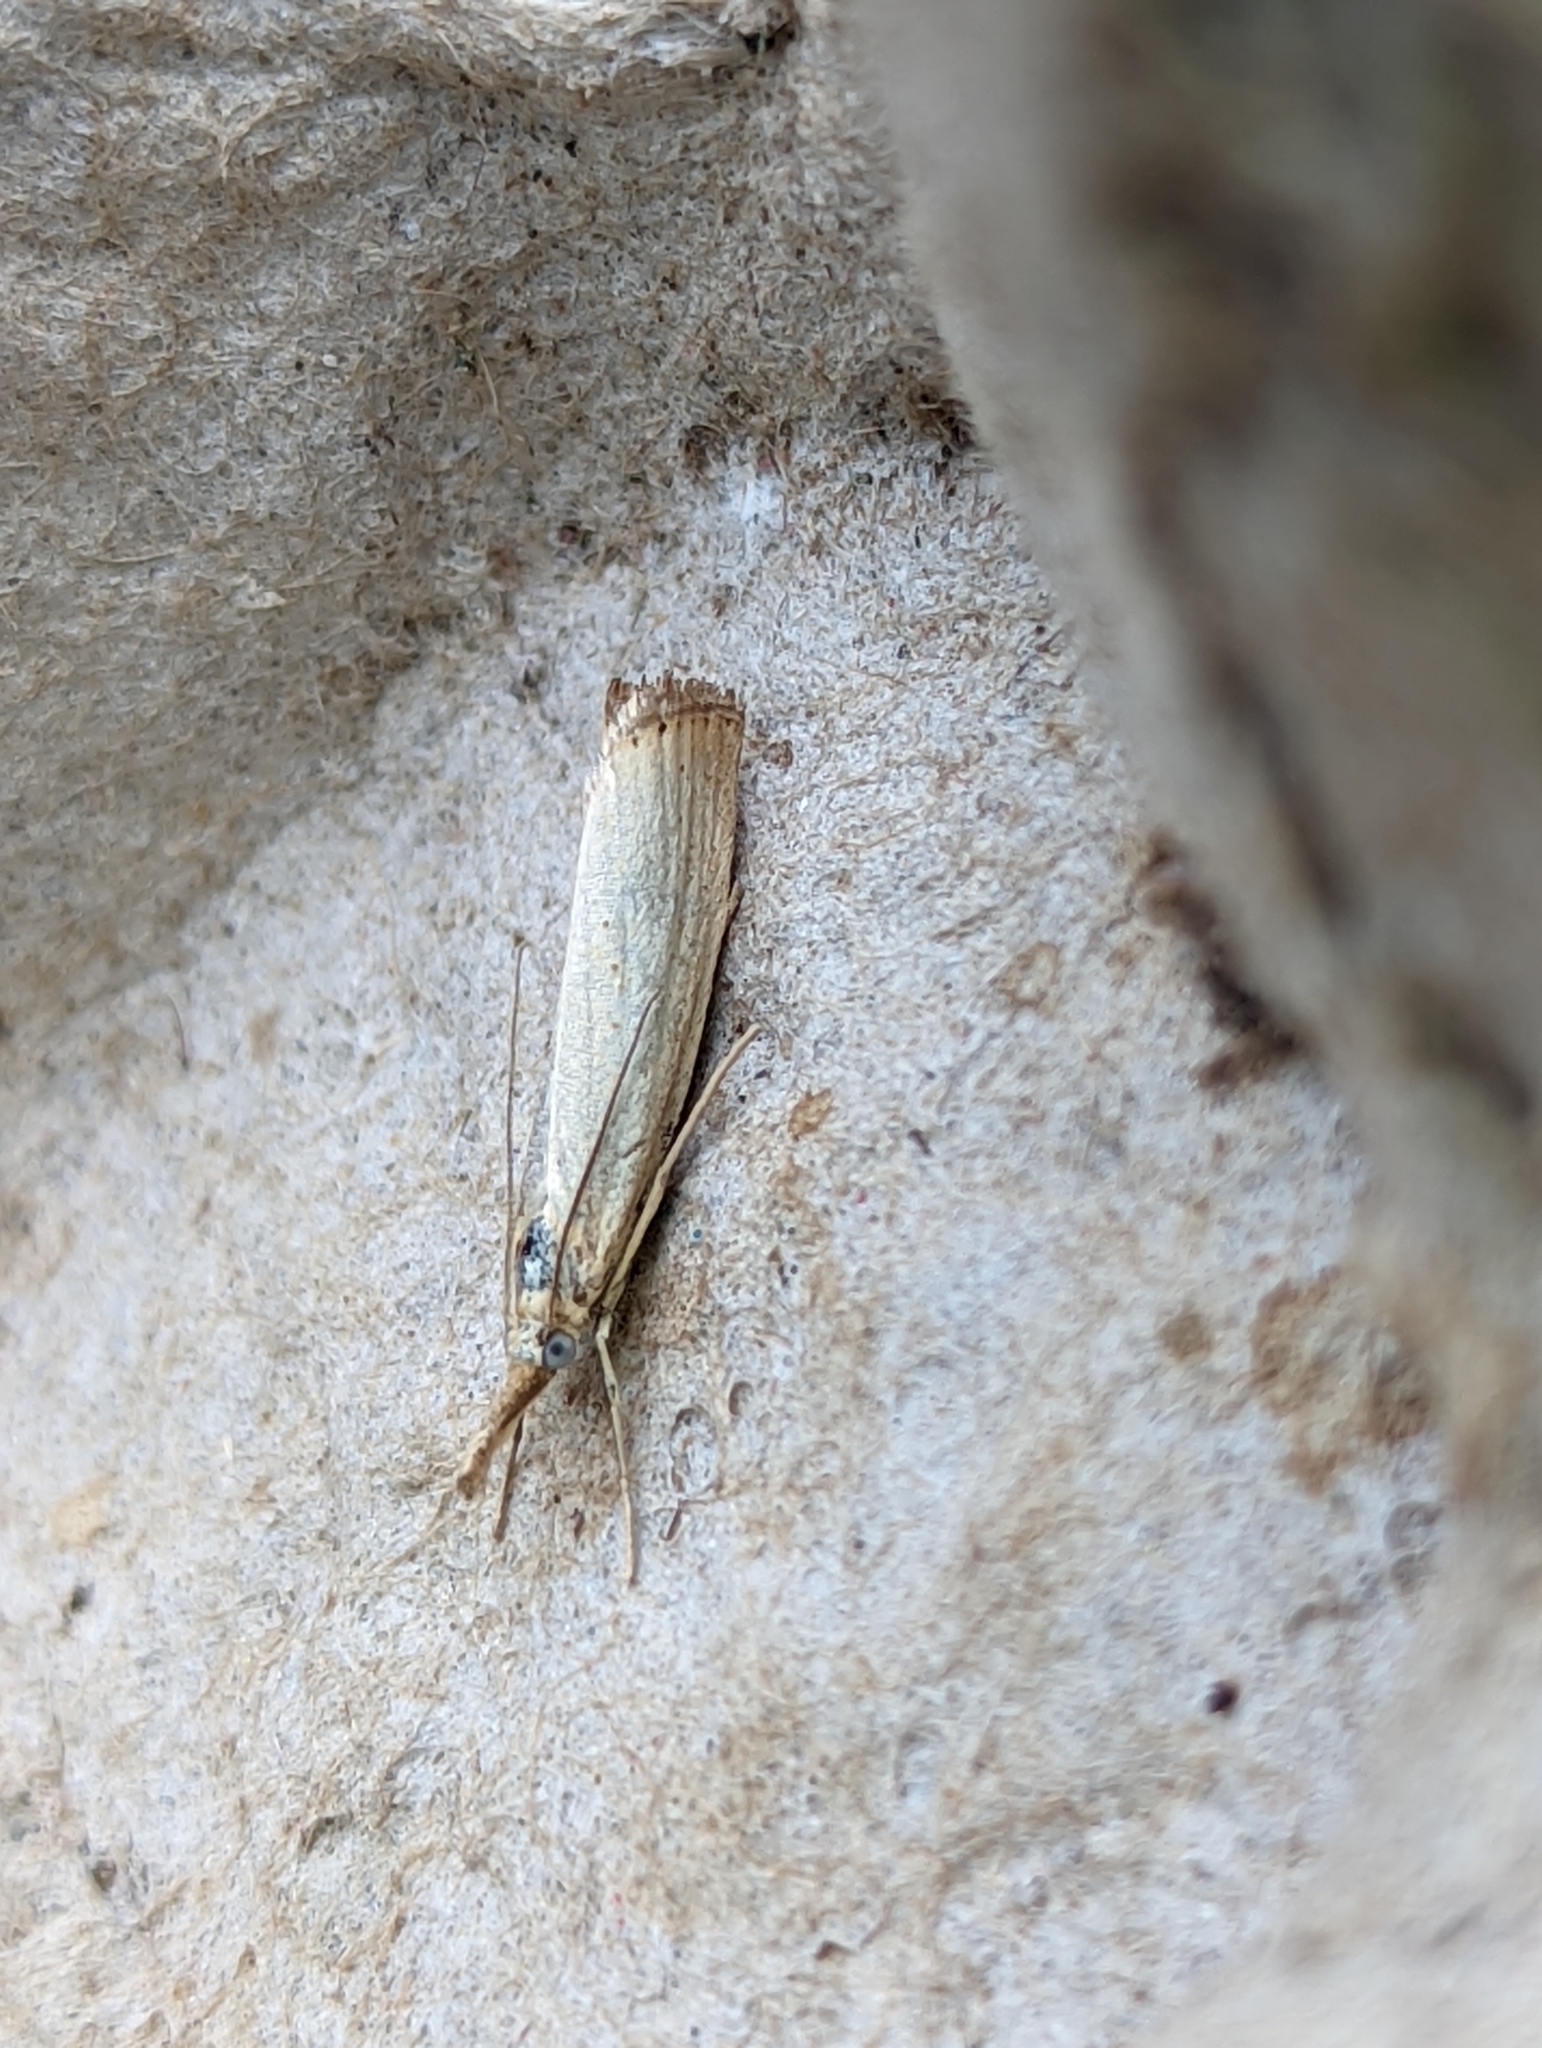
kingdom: Animalia
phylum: Arthropoda
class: Insecta
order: Lepidoptera
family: Crambidae
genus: Agriphila
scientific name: Agriphila straminella
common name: Straw grass-veneer
